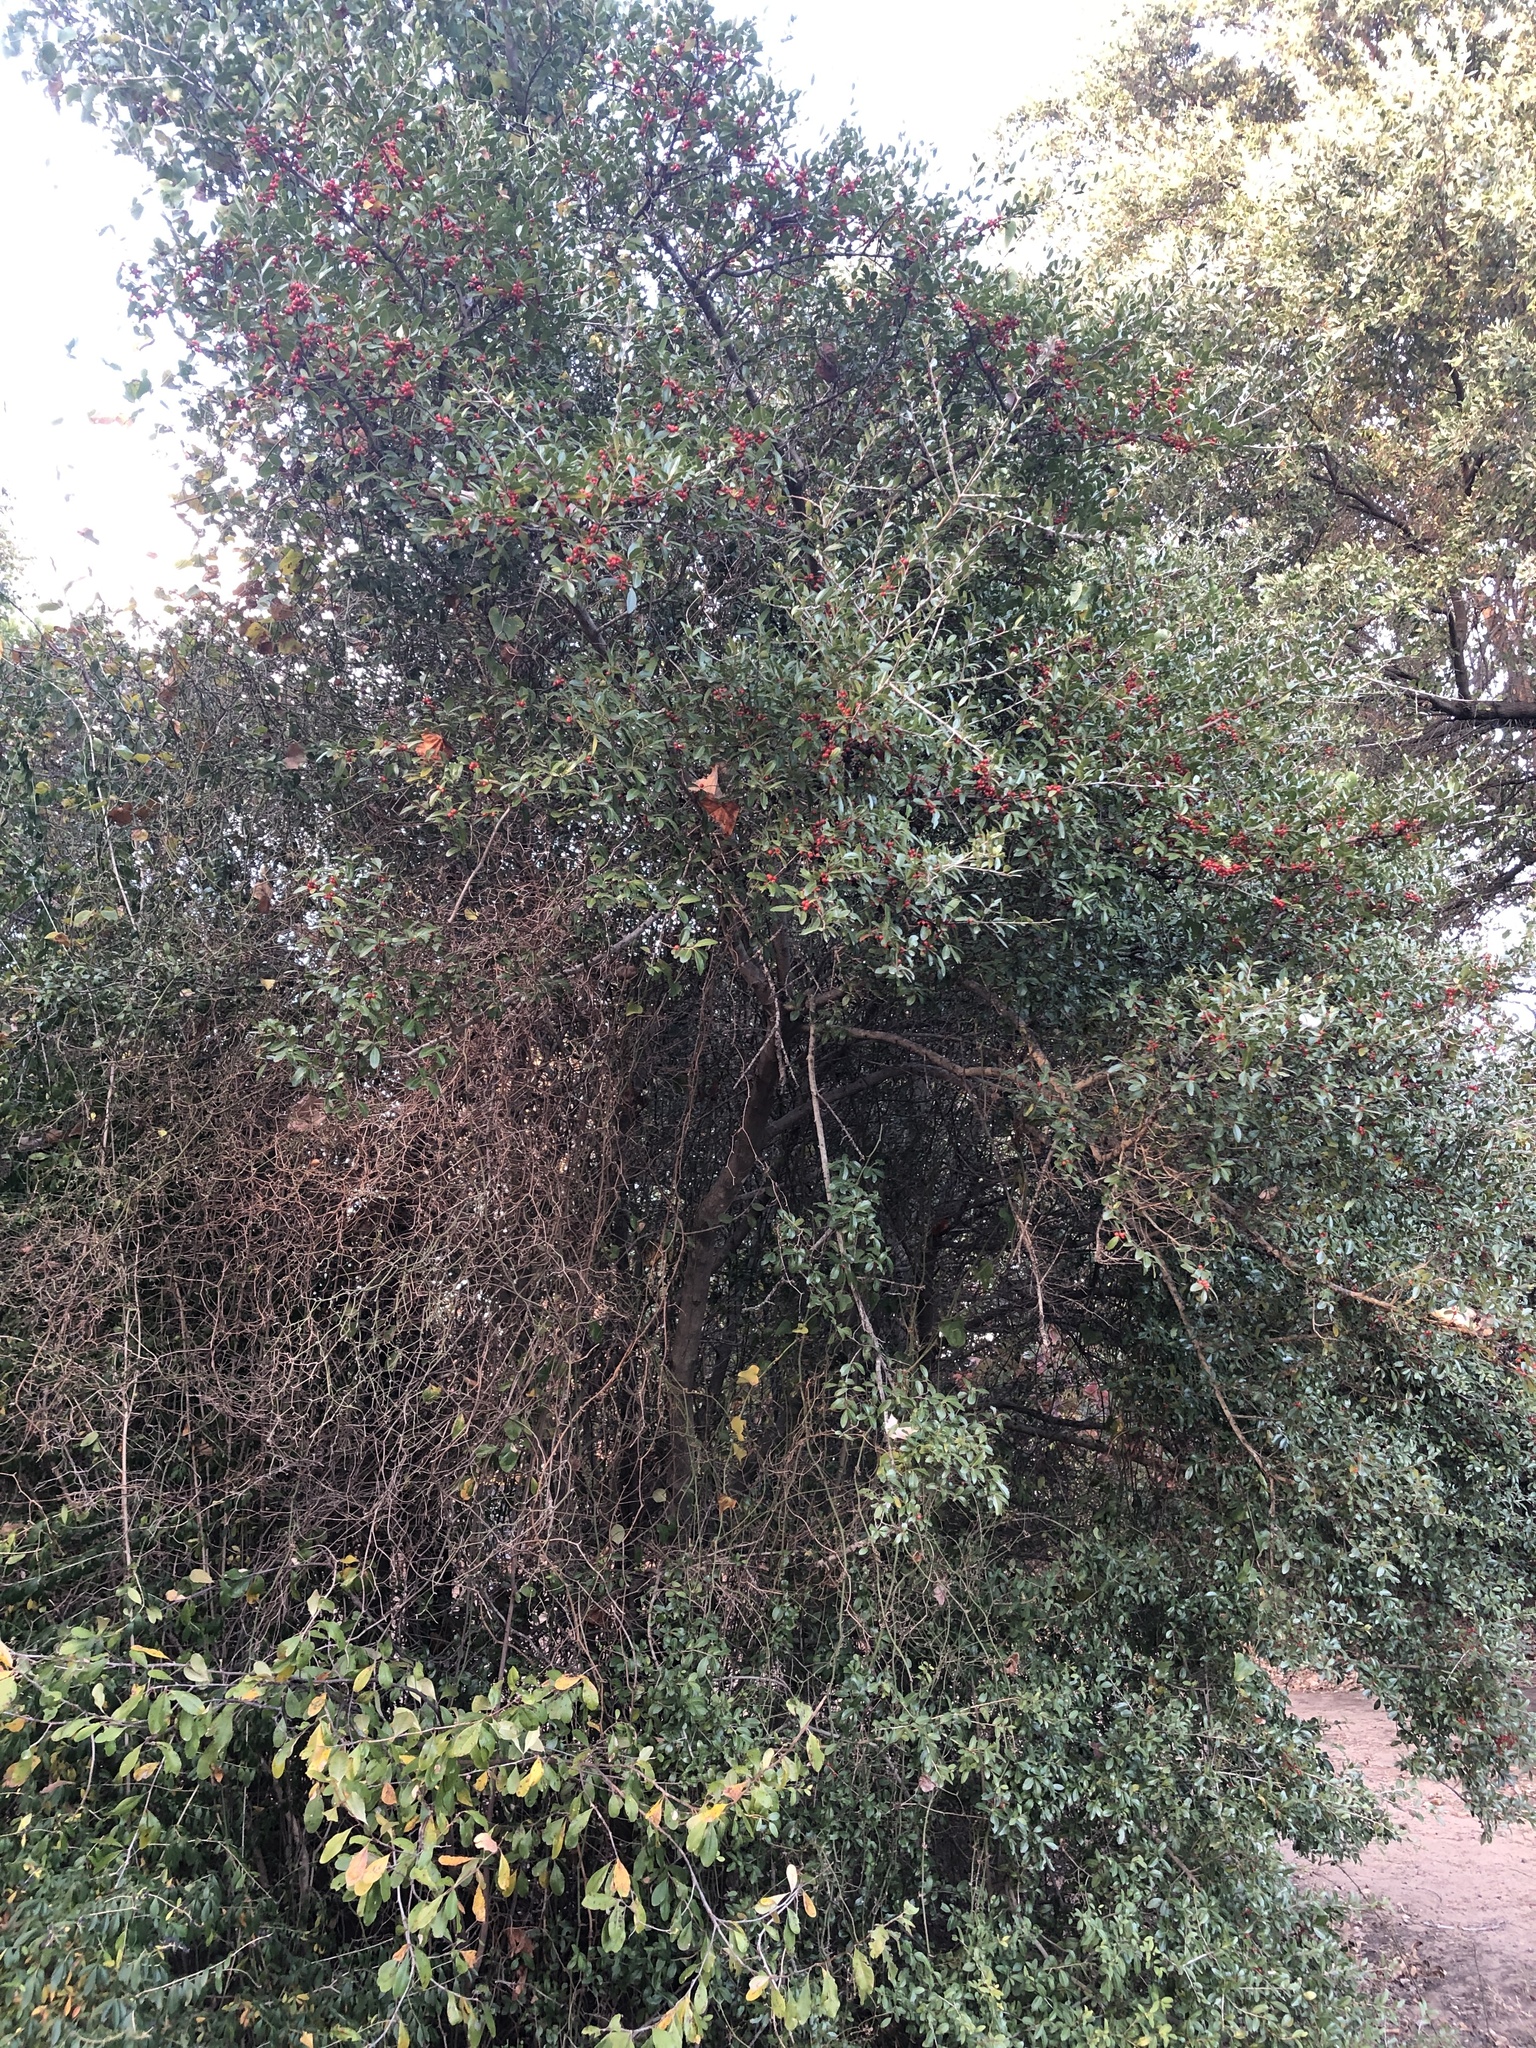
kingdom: Plantae
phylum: Tracheophyta
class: Magnoliopsida
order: Aquifoliales
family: Aquifoliaceae
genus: Ilex
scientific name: Ilex vomitoria
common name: Yaupon holly
